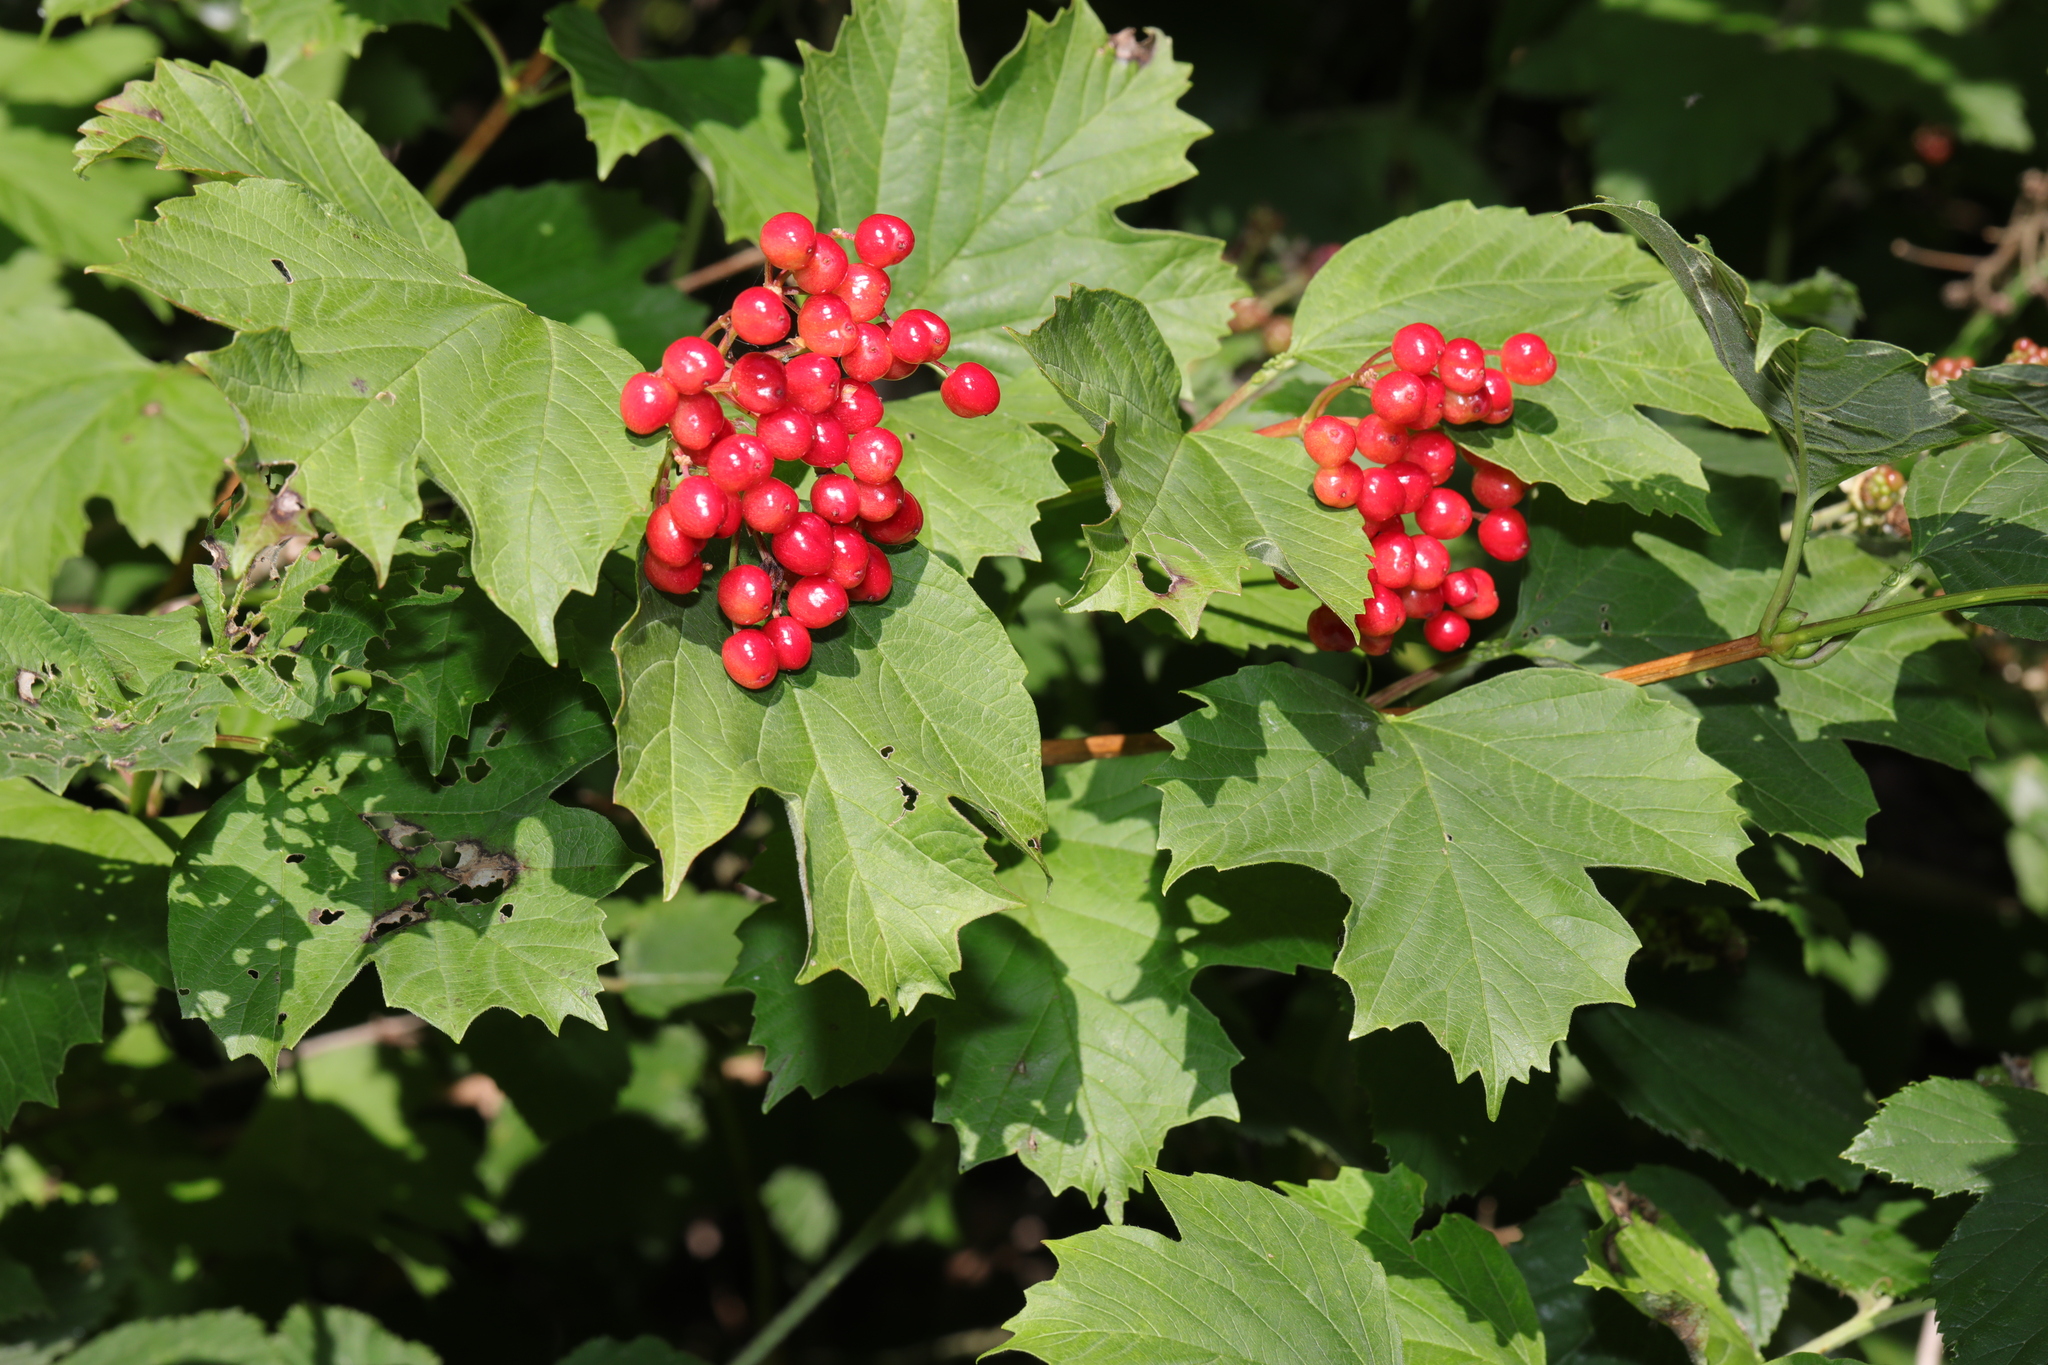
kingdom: Plantae
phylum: Tracheophyta
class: Magnoliopsida
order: Dipsacales
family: Viburnaceae
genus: Viburnum
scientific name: Viburnum opulus
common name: Guelder-rose
